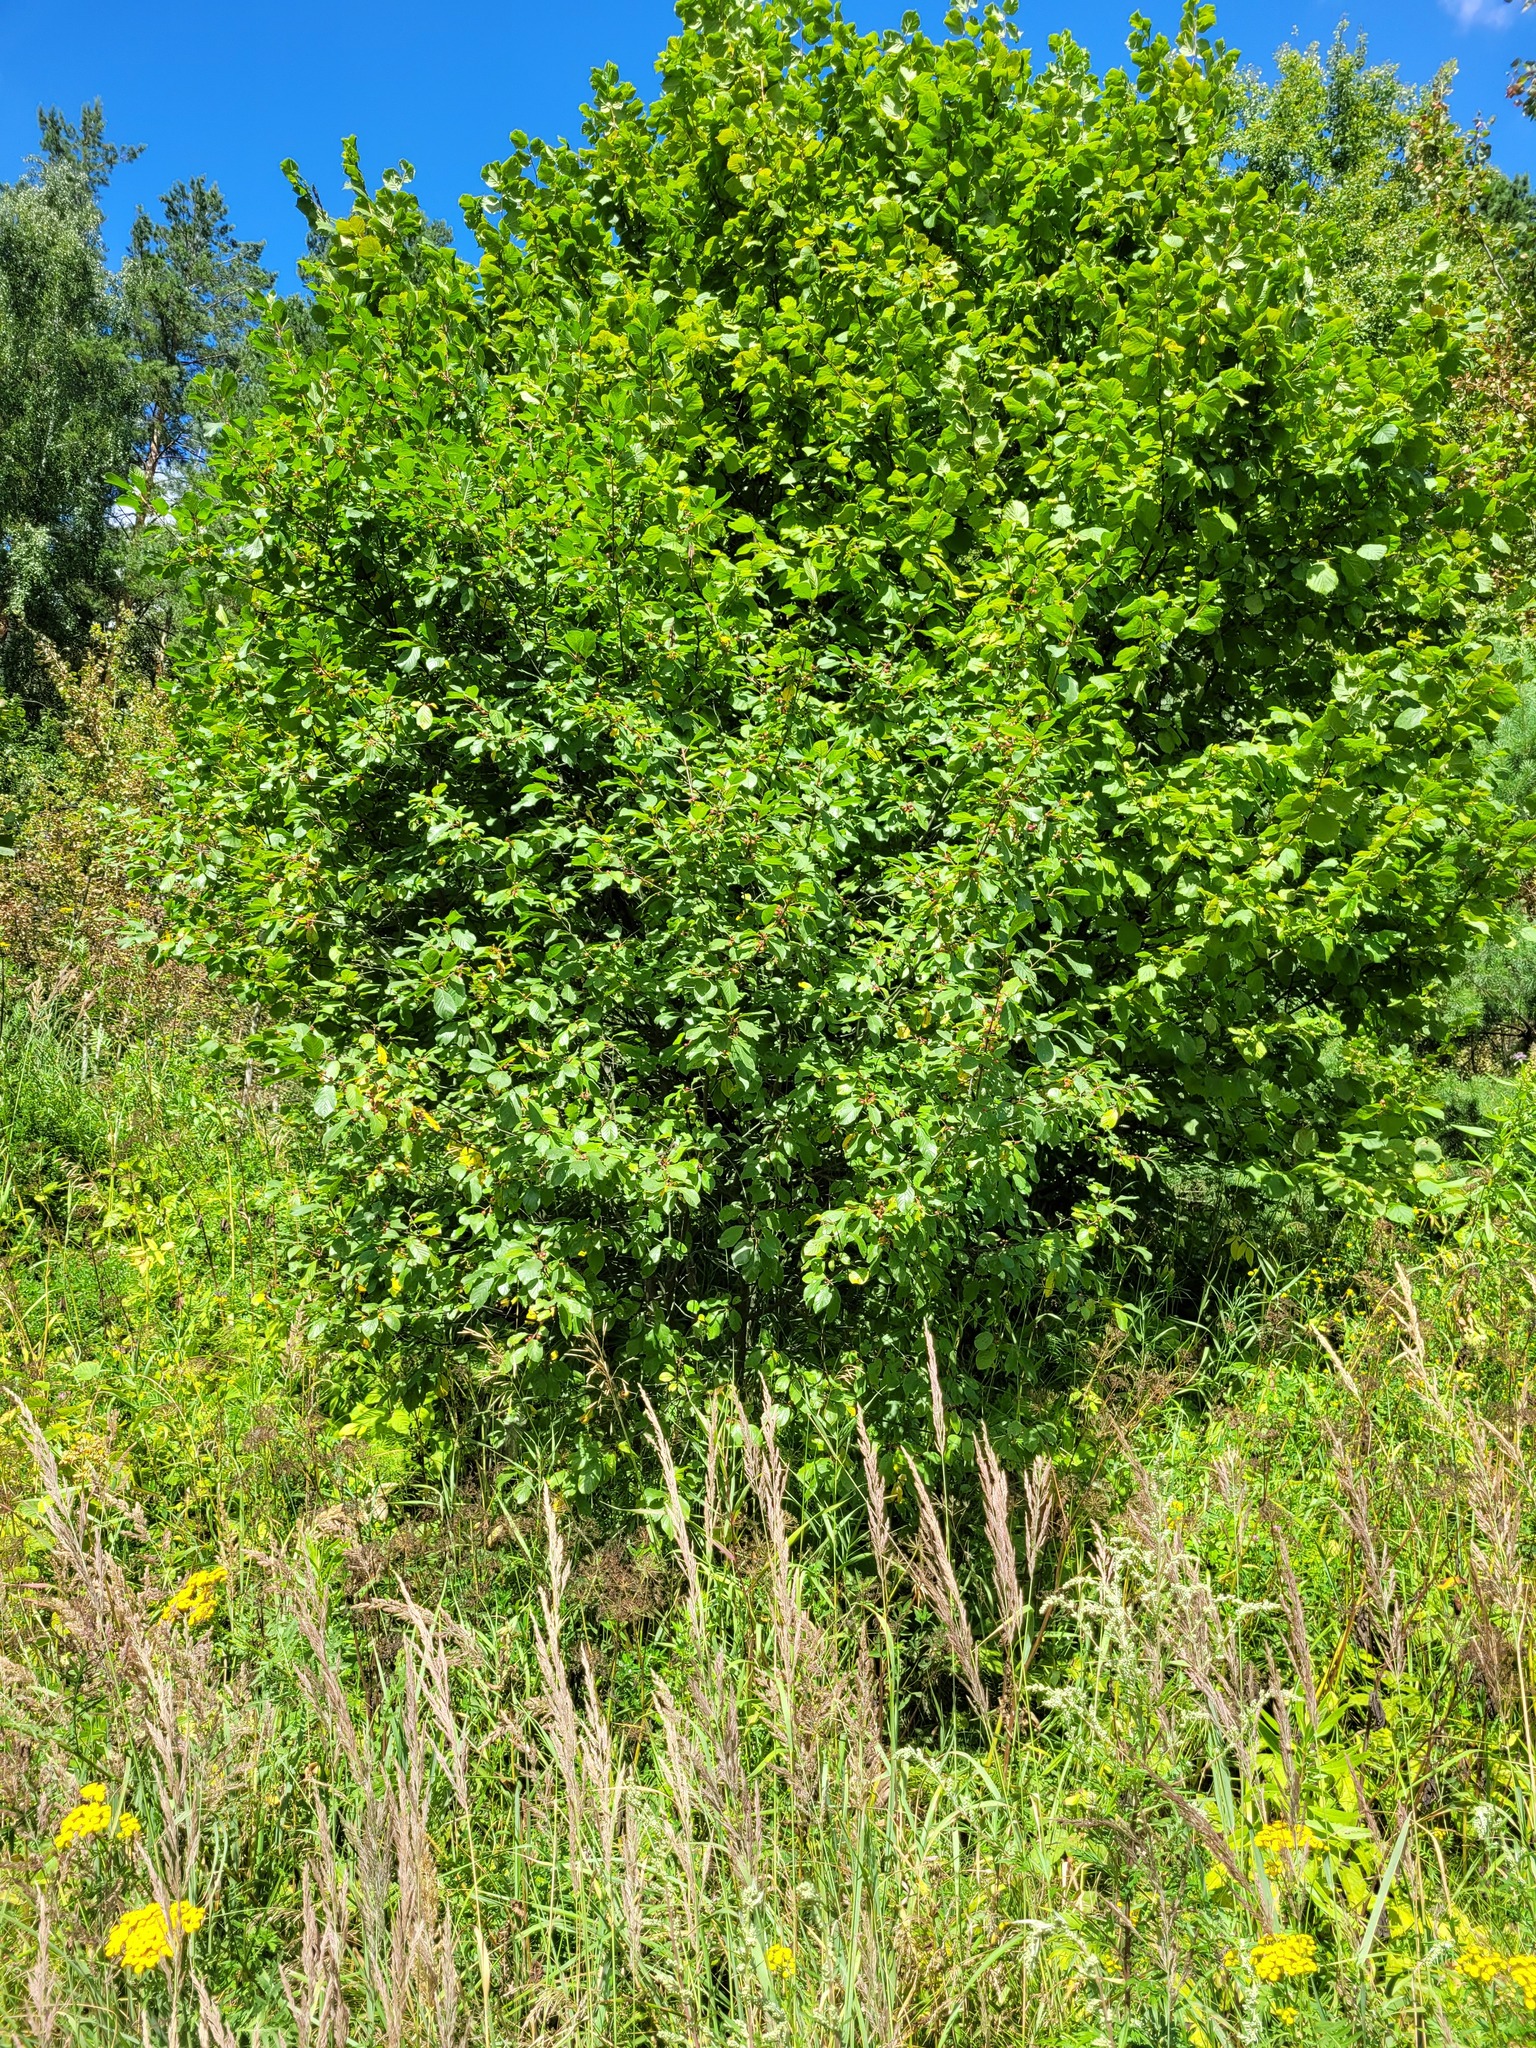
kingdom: Plantae
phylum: Tracheophyta
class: Magnoliopsida
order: Rosales
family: Rhamnaceae
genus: Frangula
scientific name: Frangula alnus
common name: Alder buckthorn
